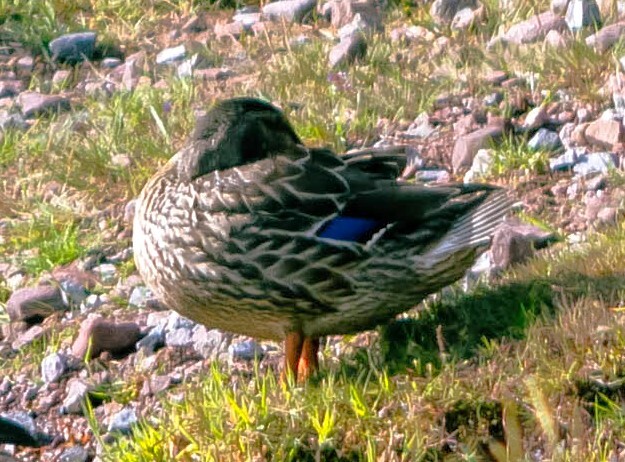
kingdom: Animalia
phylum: Chordata
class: Aves
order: Anseriformes
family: Anatidae
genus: Anas
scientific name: Anas platyrhynchos
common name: Mallard
